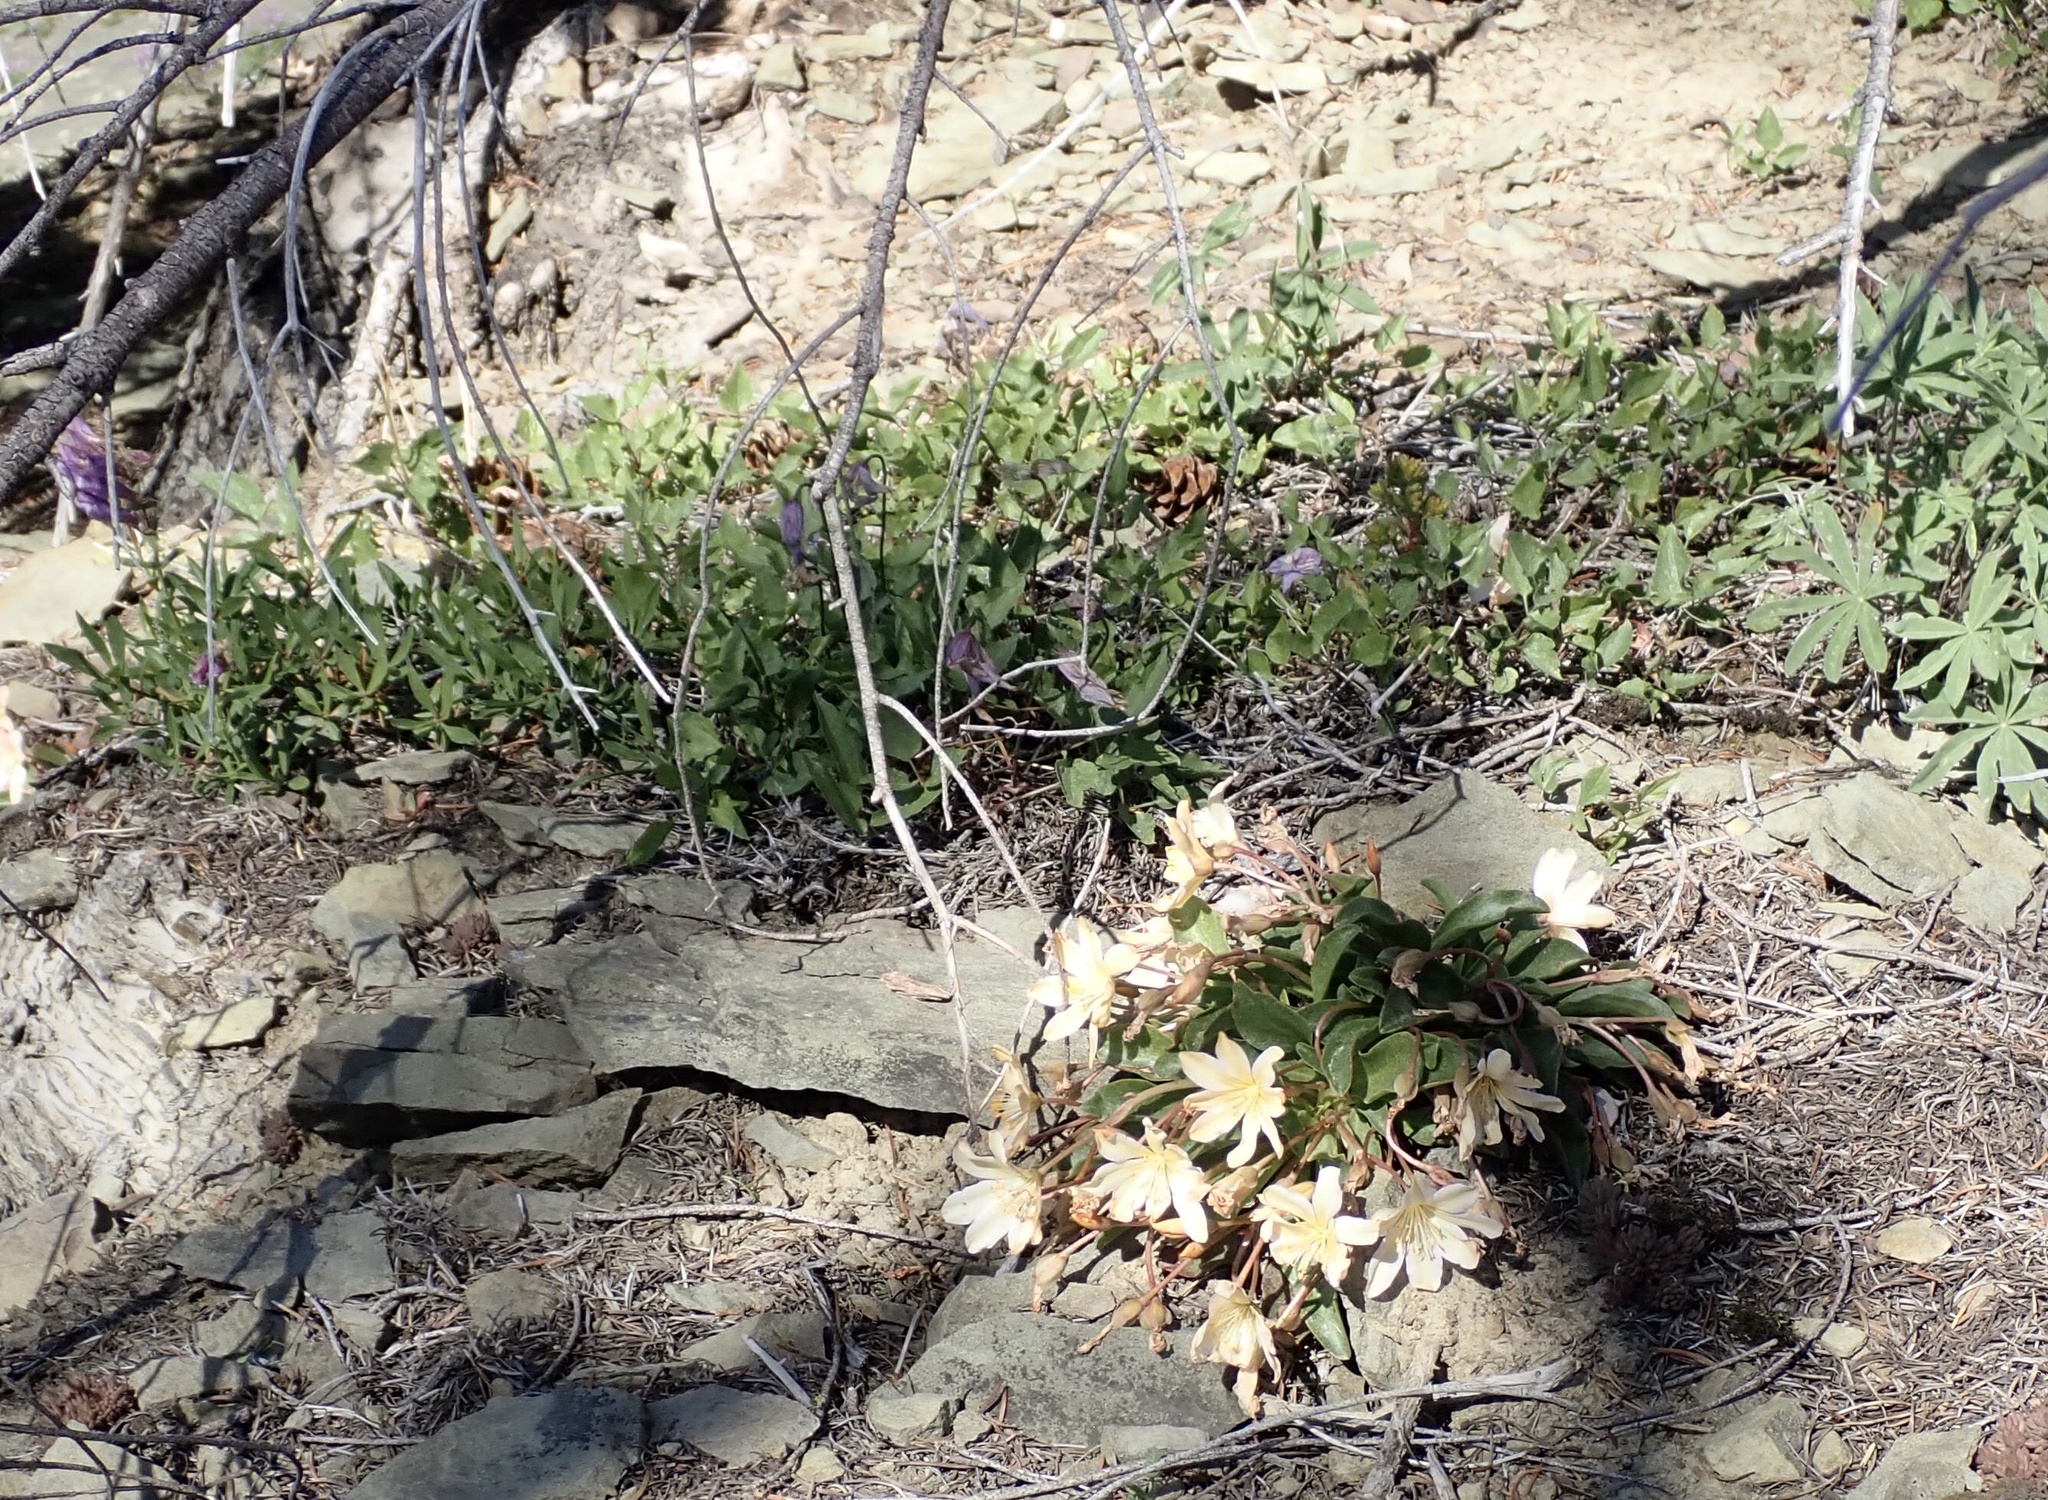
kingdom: Plantae
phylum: Tracheophyta
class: Magnoliopsida
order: Caryophyllales
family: Montiaceae
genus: Lewisiopsis
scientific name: Lewisiopsis tweedyi
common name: Tweedy's pussypaws
